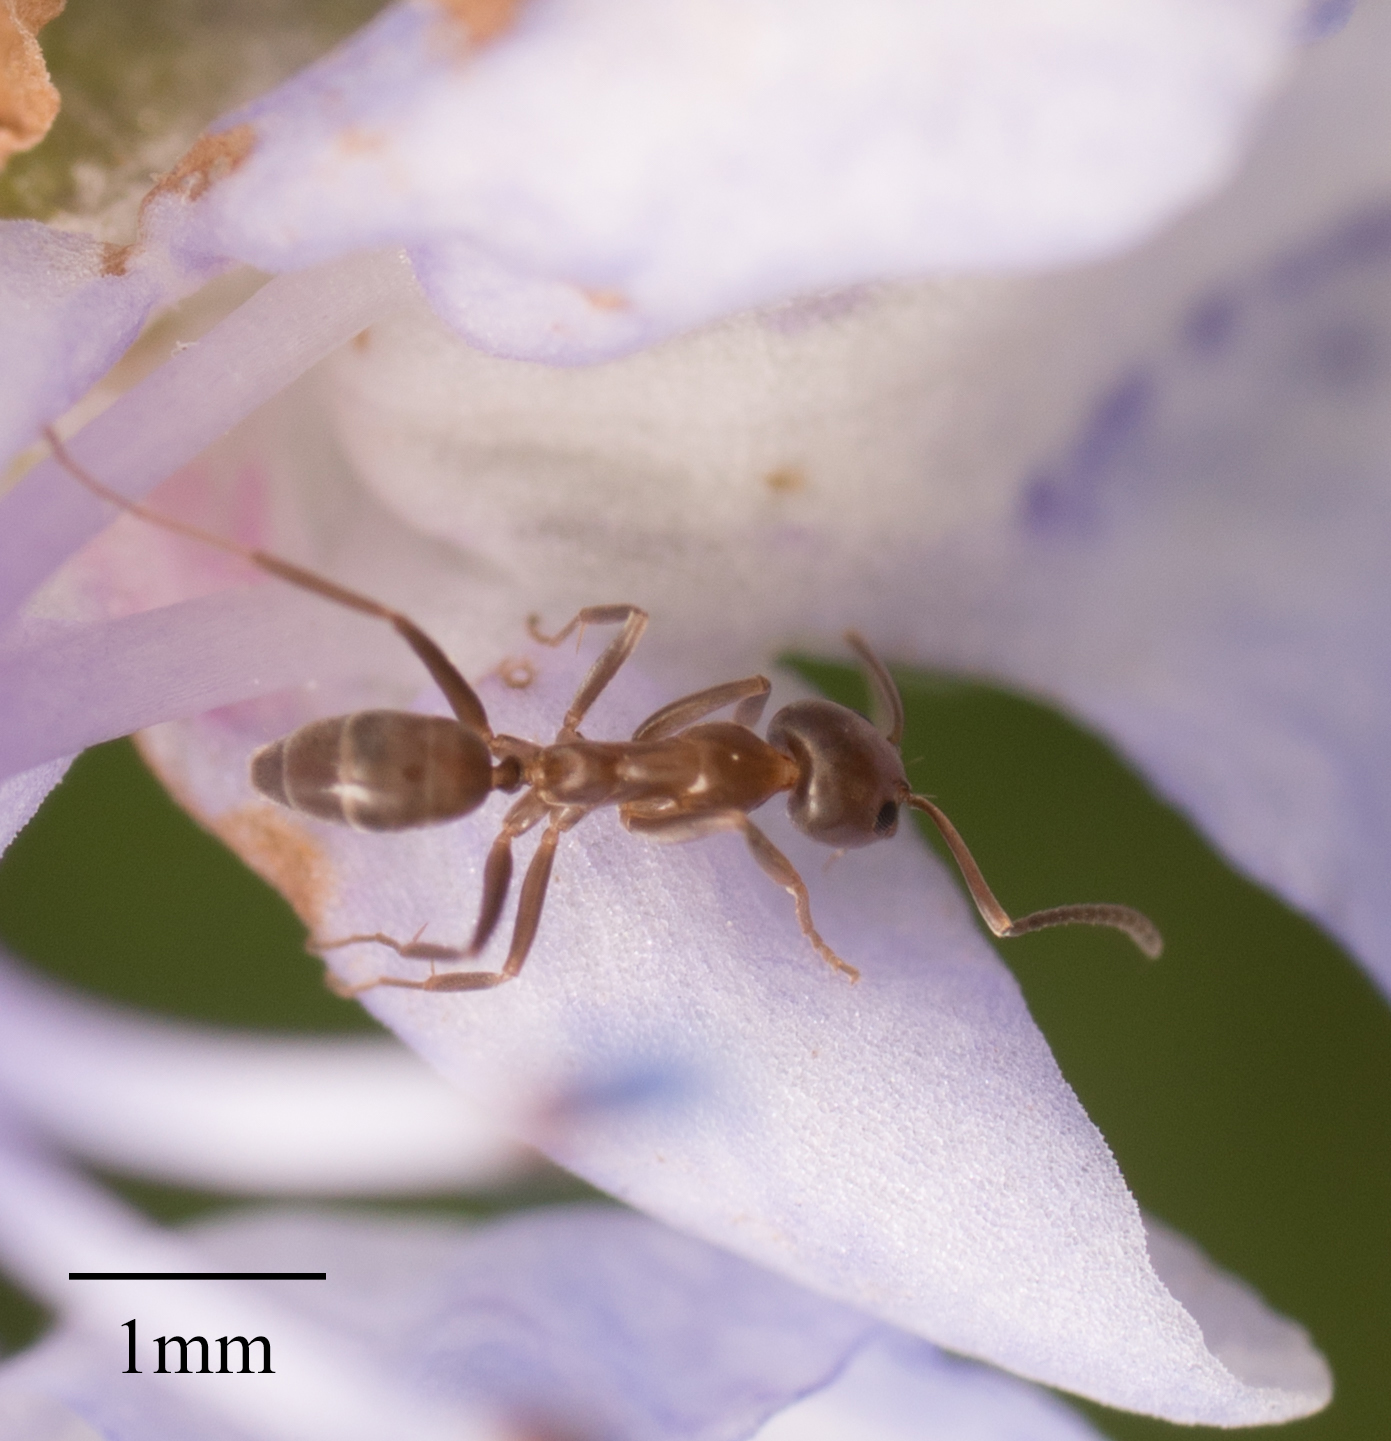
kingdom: Animalia
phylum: Arthropoda
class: Insecta
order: Hymenoptera
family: Formicidae
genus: Linepithema
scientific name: Linepithema humile
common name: Argentine ant
